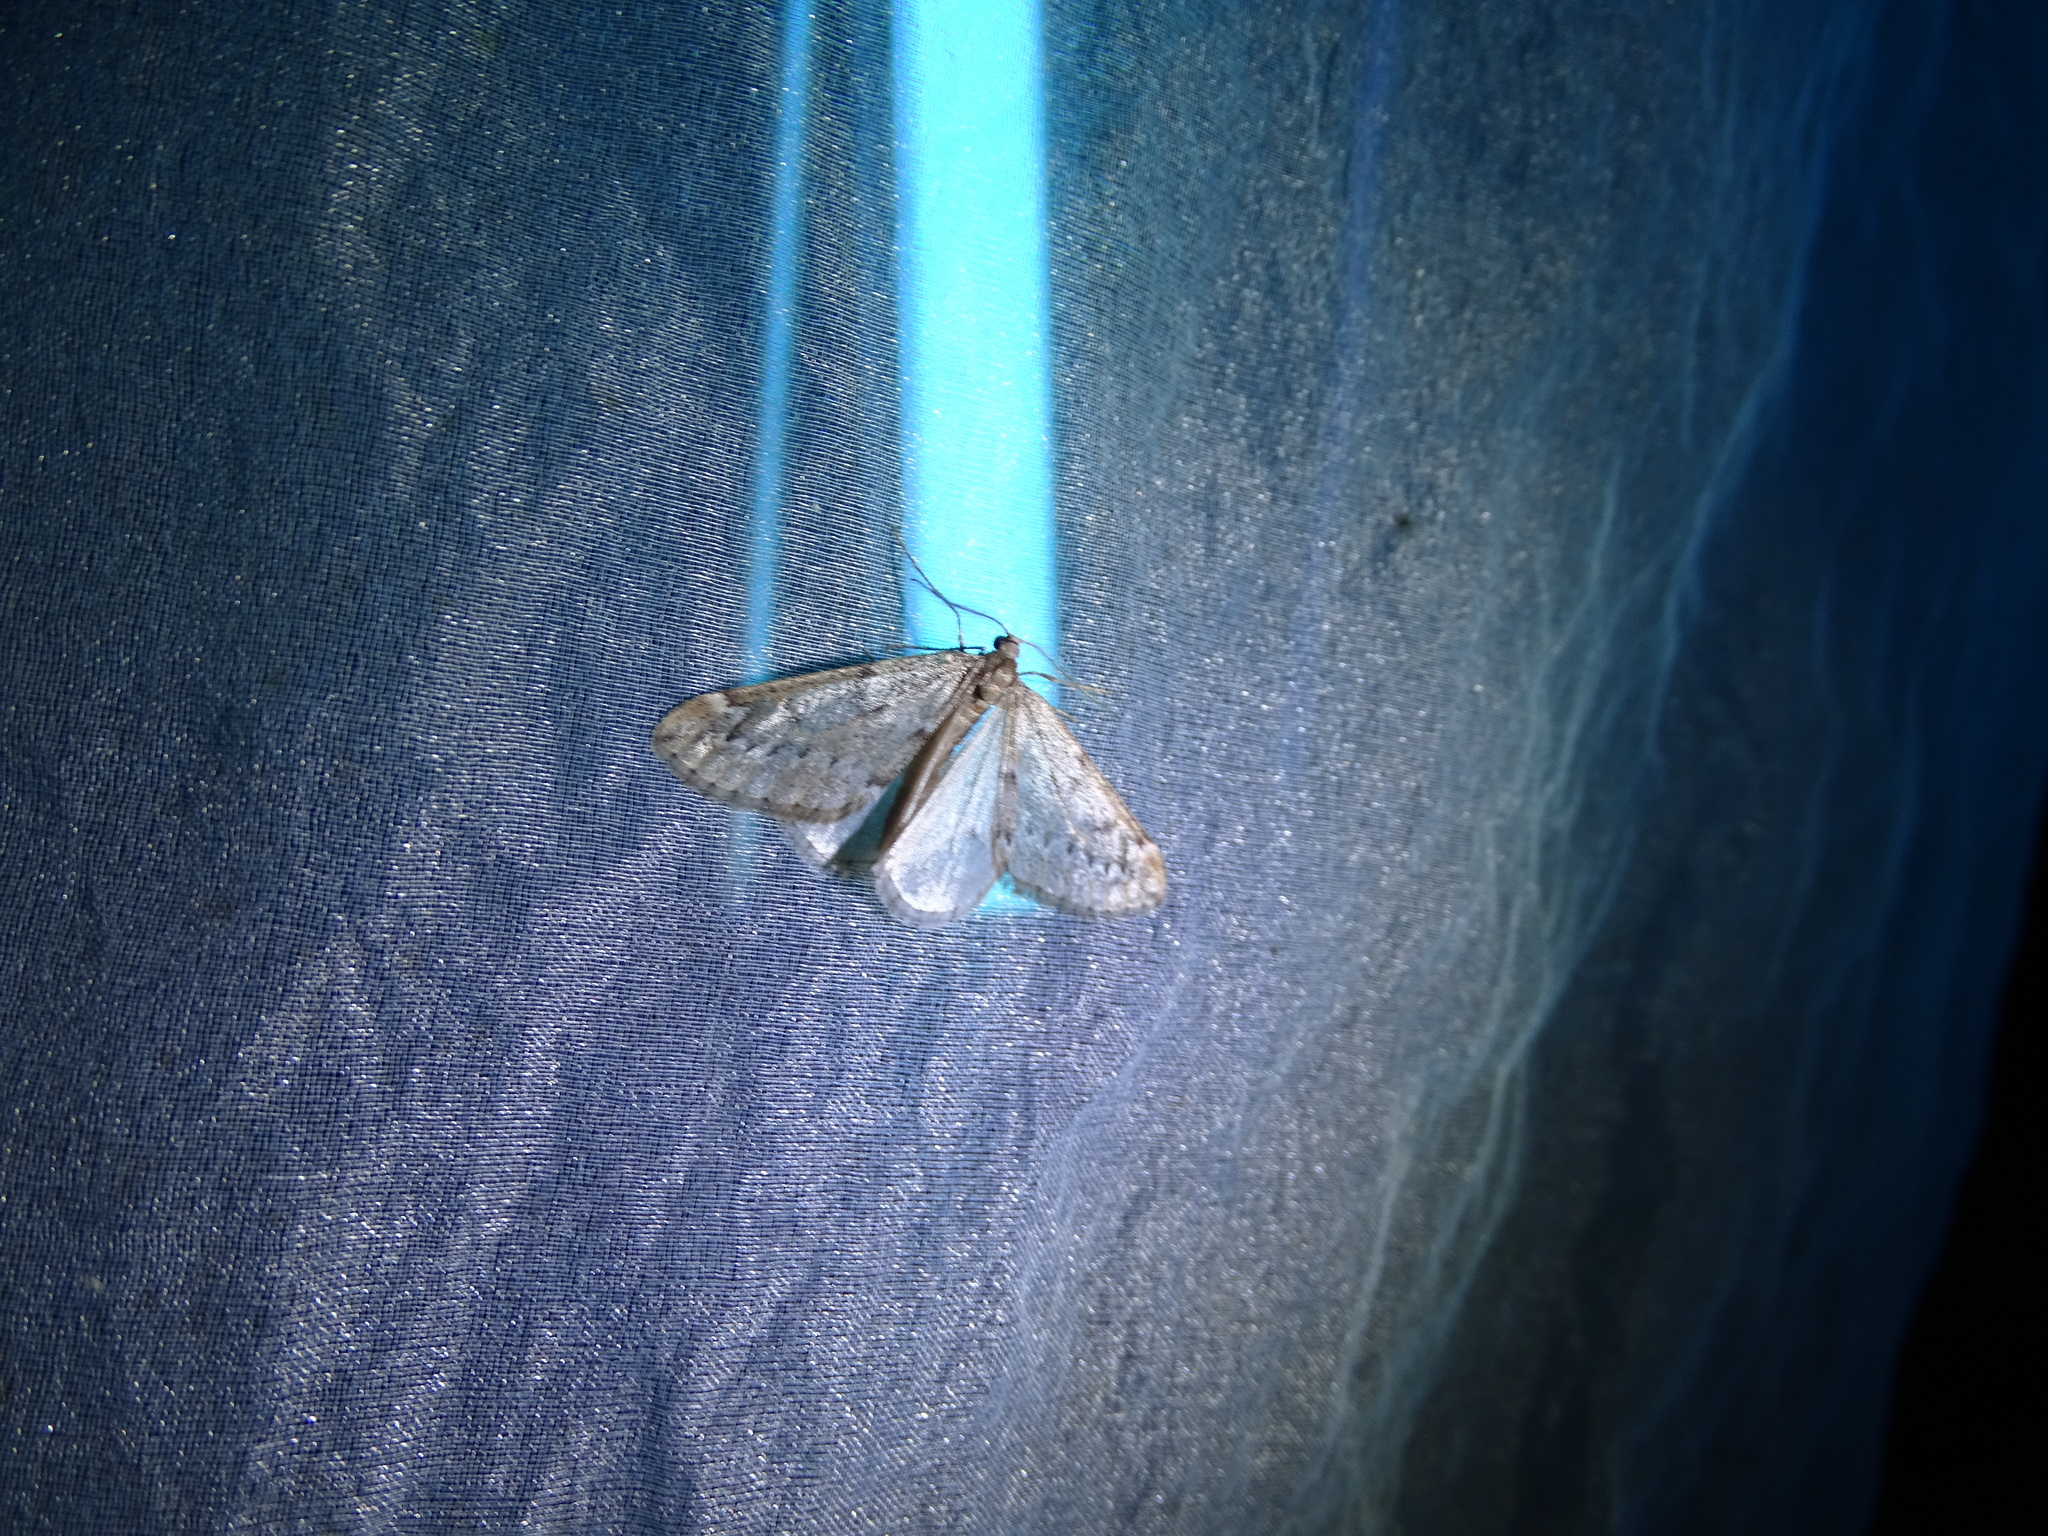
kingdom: Animalia
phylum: Arthropoda
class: Insecta
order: Lepidoptera
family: Geometridae
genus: Alsophila
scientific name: Alsophila aescularia
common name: March moth
